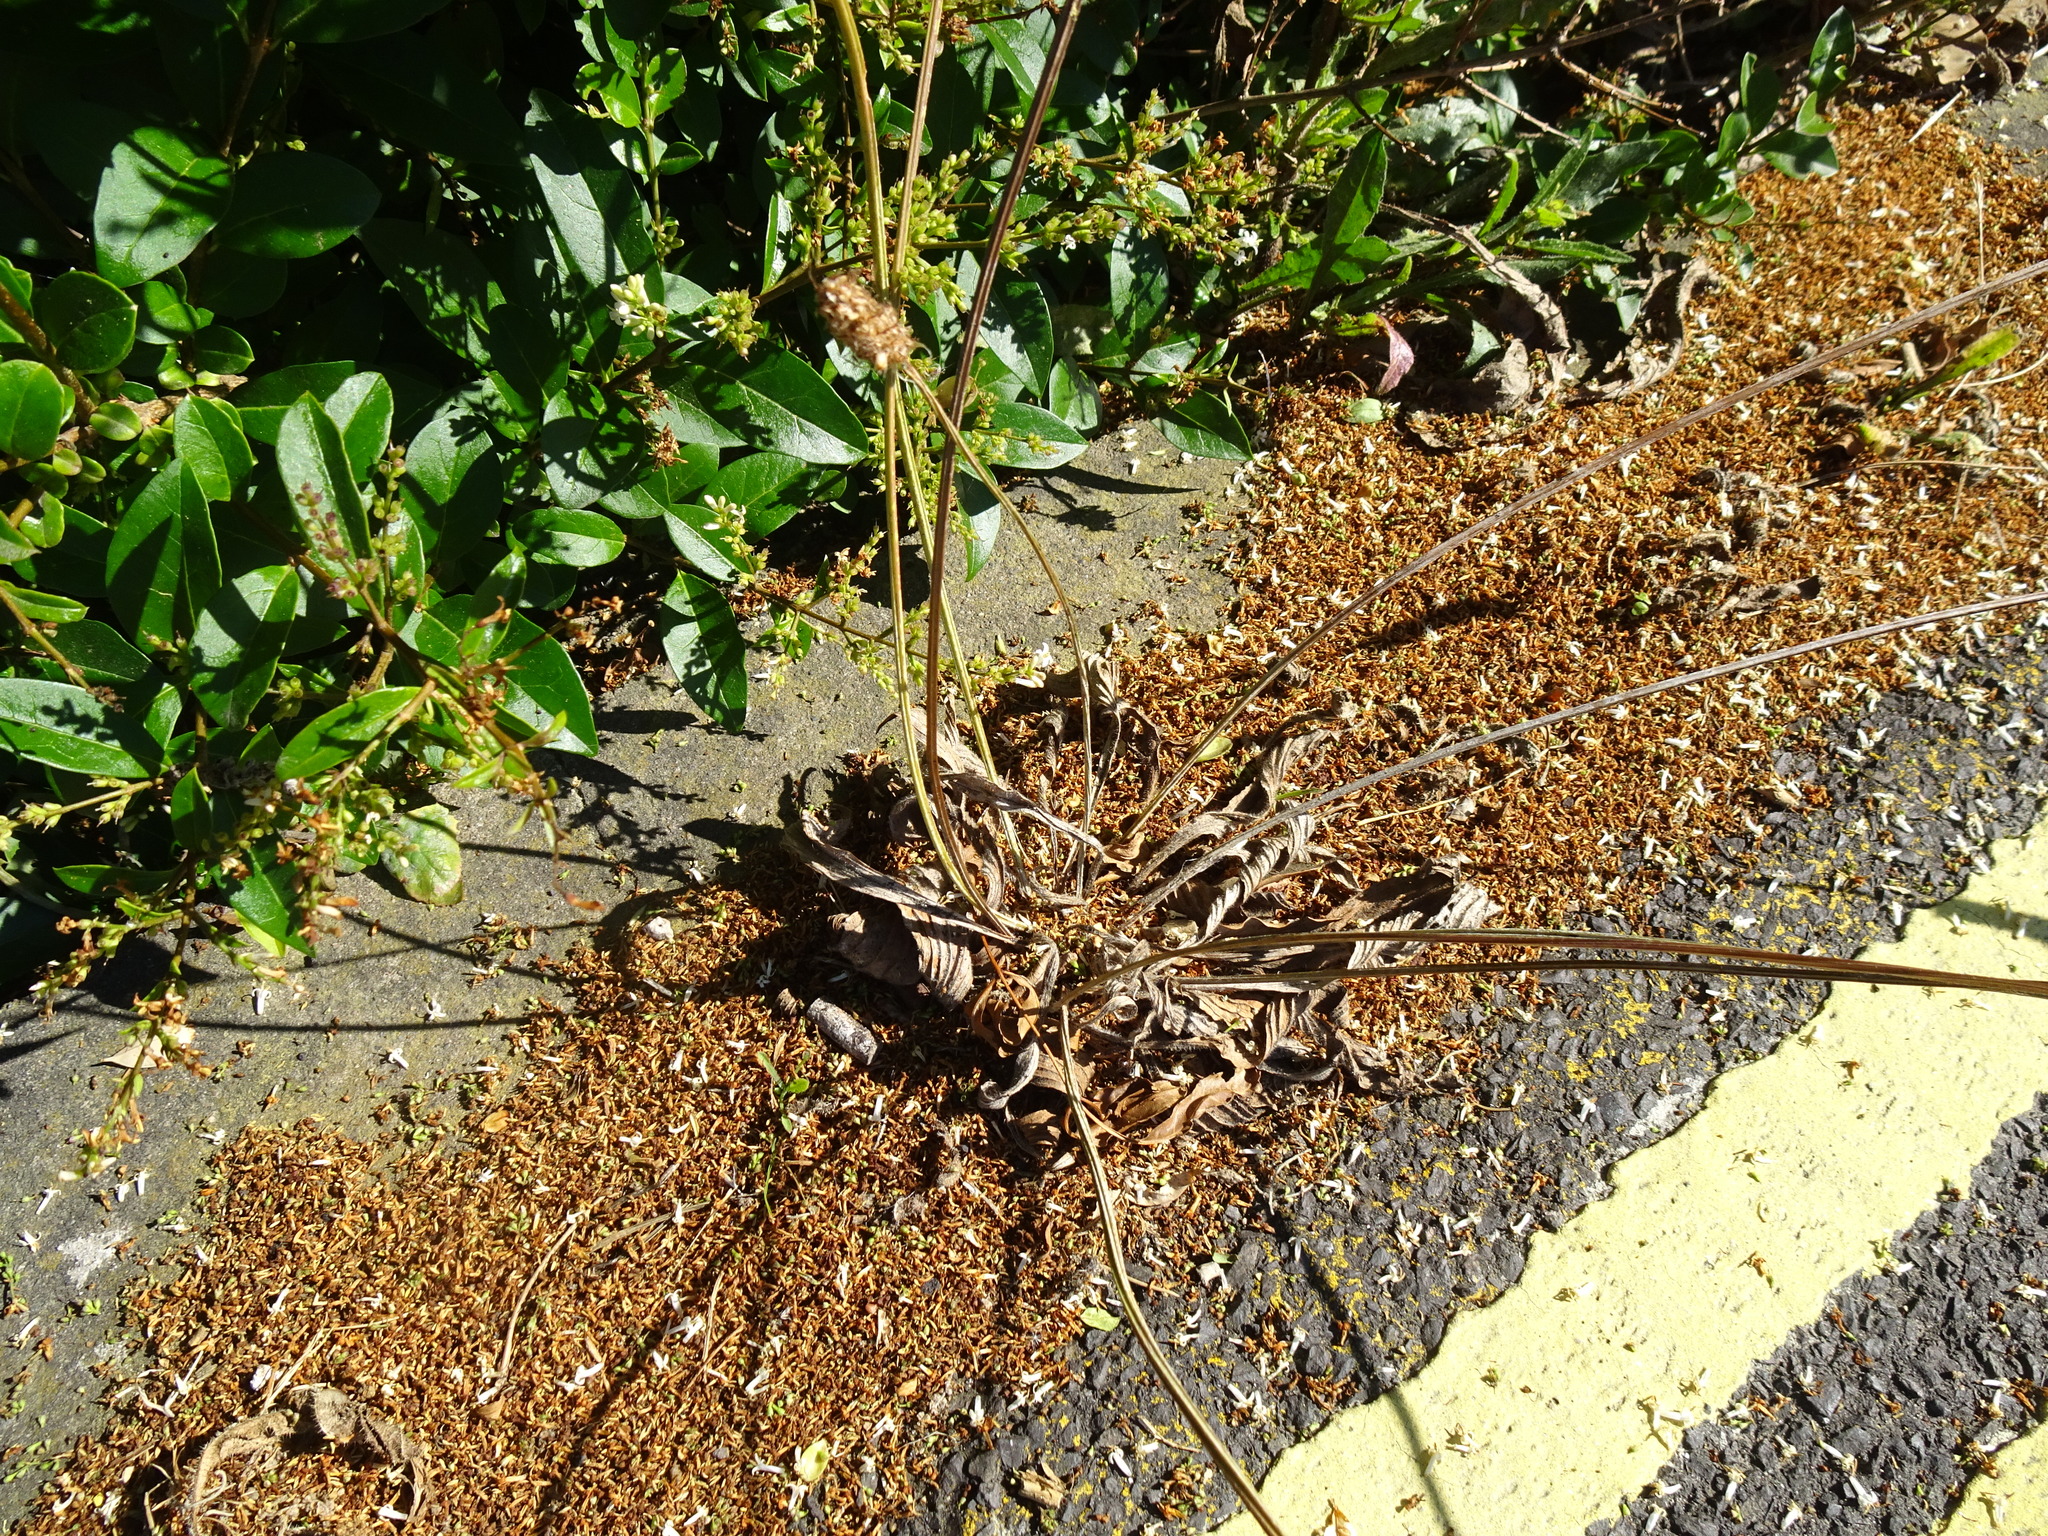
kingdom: Plantae
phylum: Tracheophyta
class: Magnoliopsida
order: Lamiales
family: Plantaginaceae
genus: Plantago
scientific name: Plantago lanceolata
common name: Ribwort plantain
